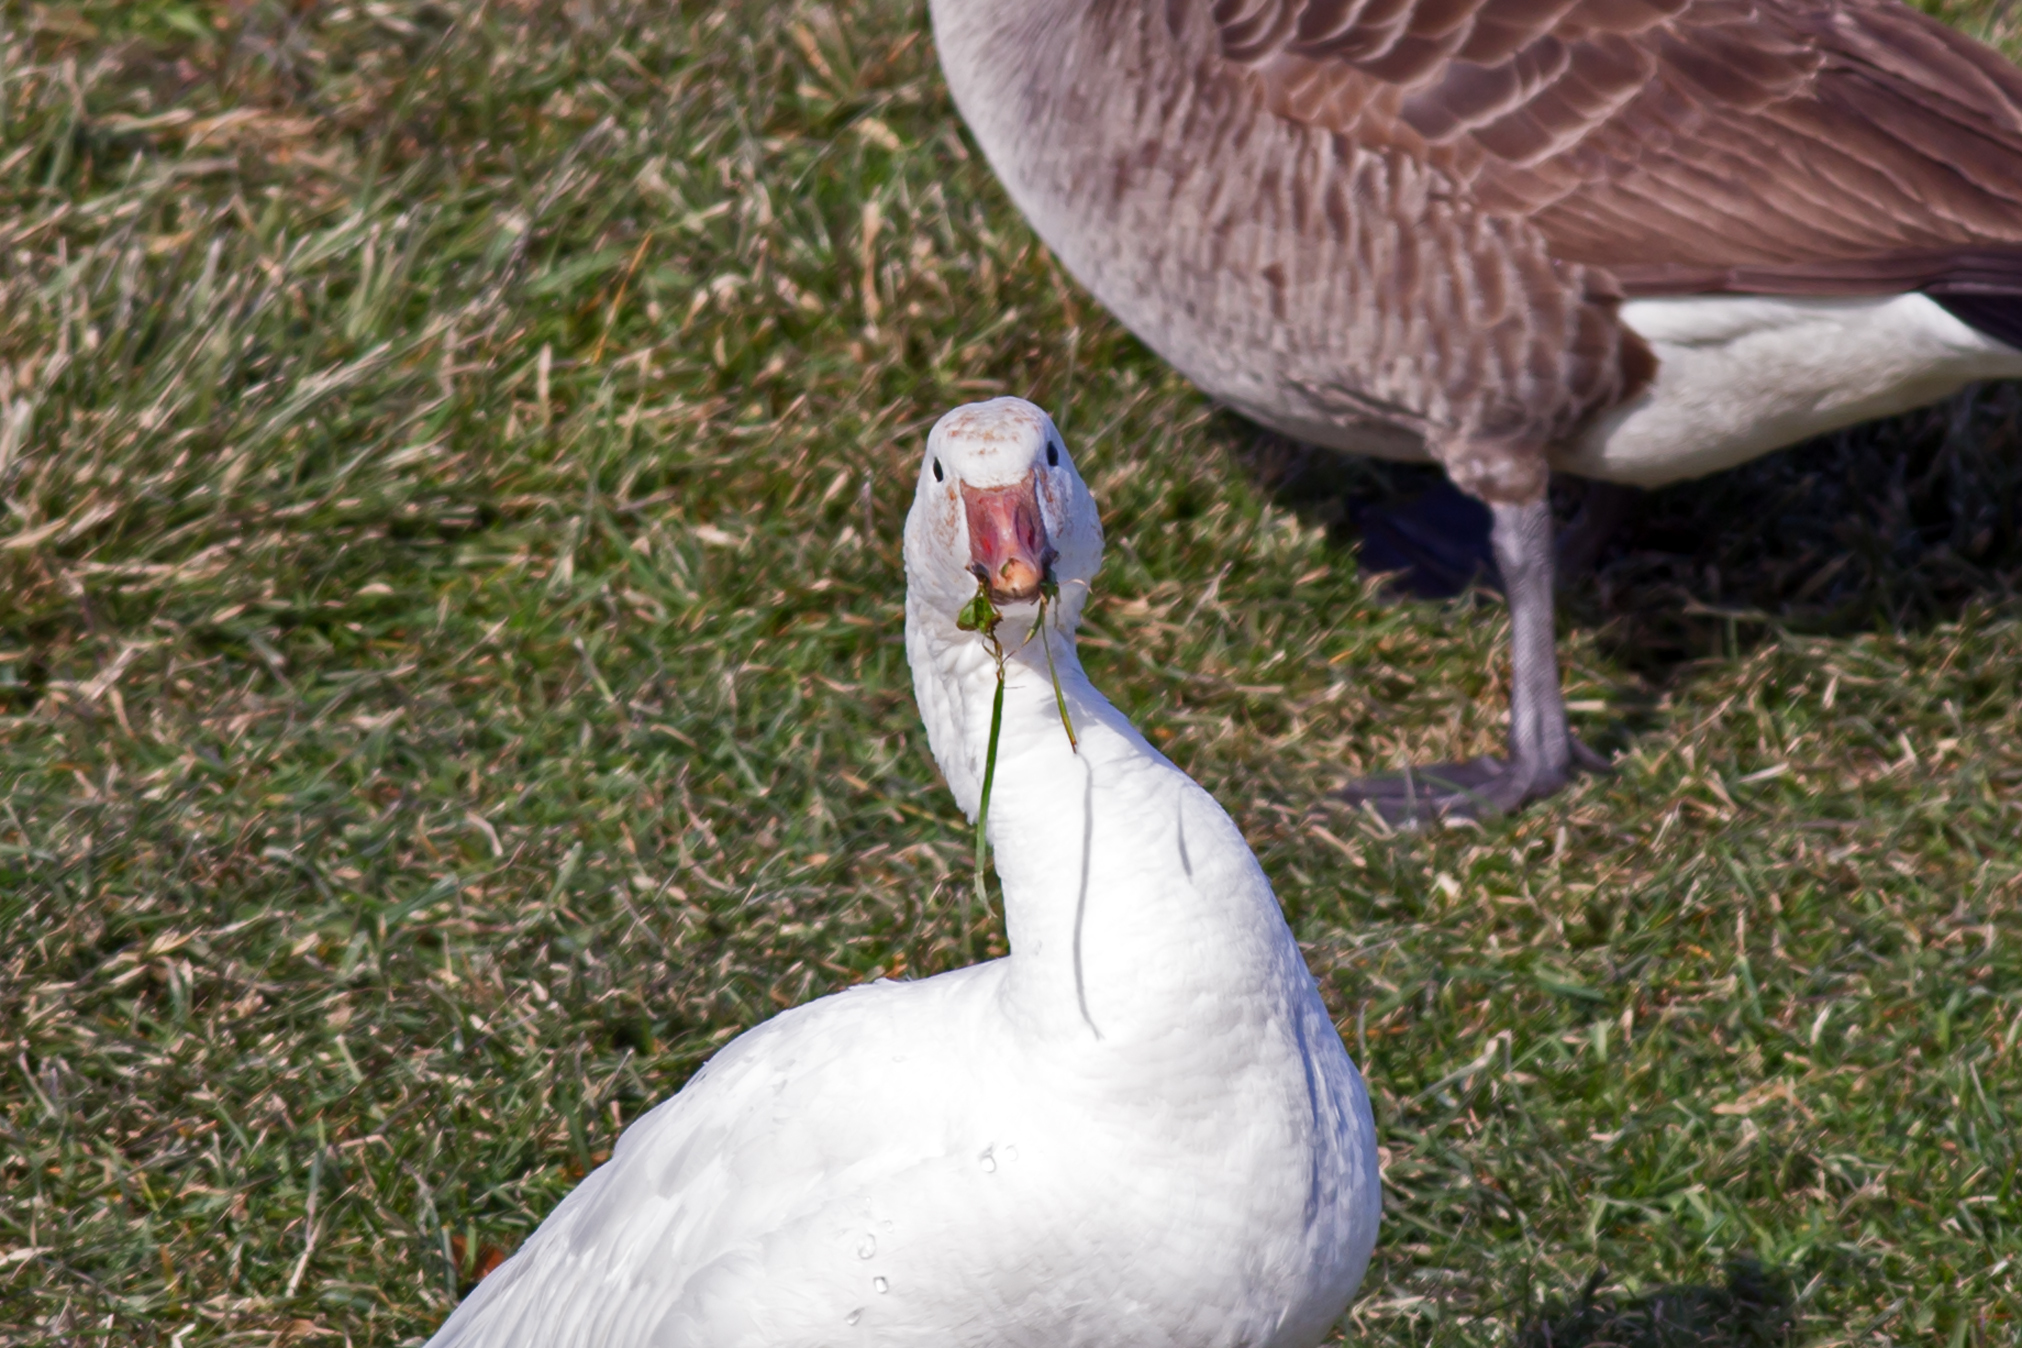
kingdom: Animalia
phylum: Chordata
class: Aves
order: Anseriformes
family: Anatidae
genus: Anser
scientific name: Anser caerulescens
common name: Snow goose
